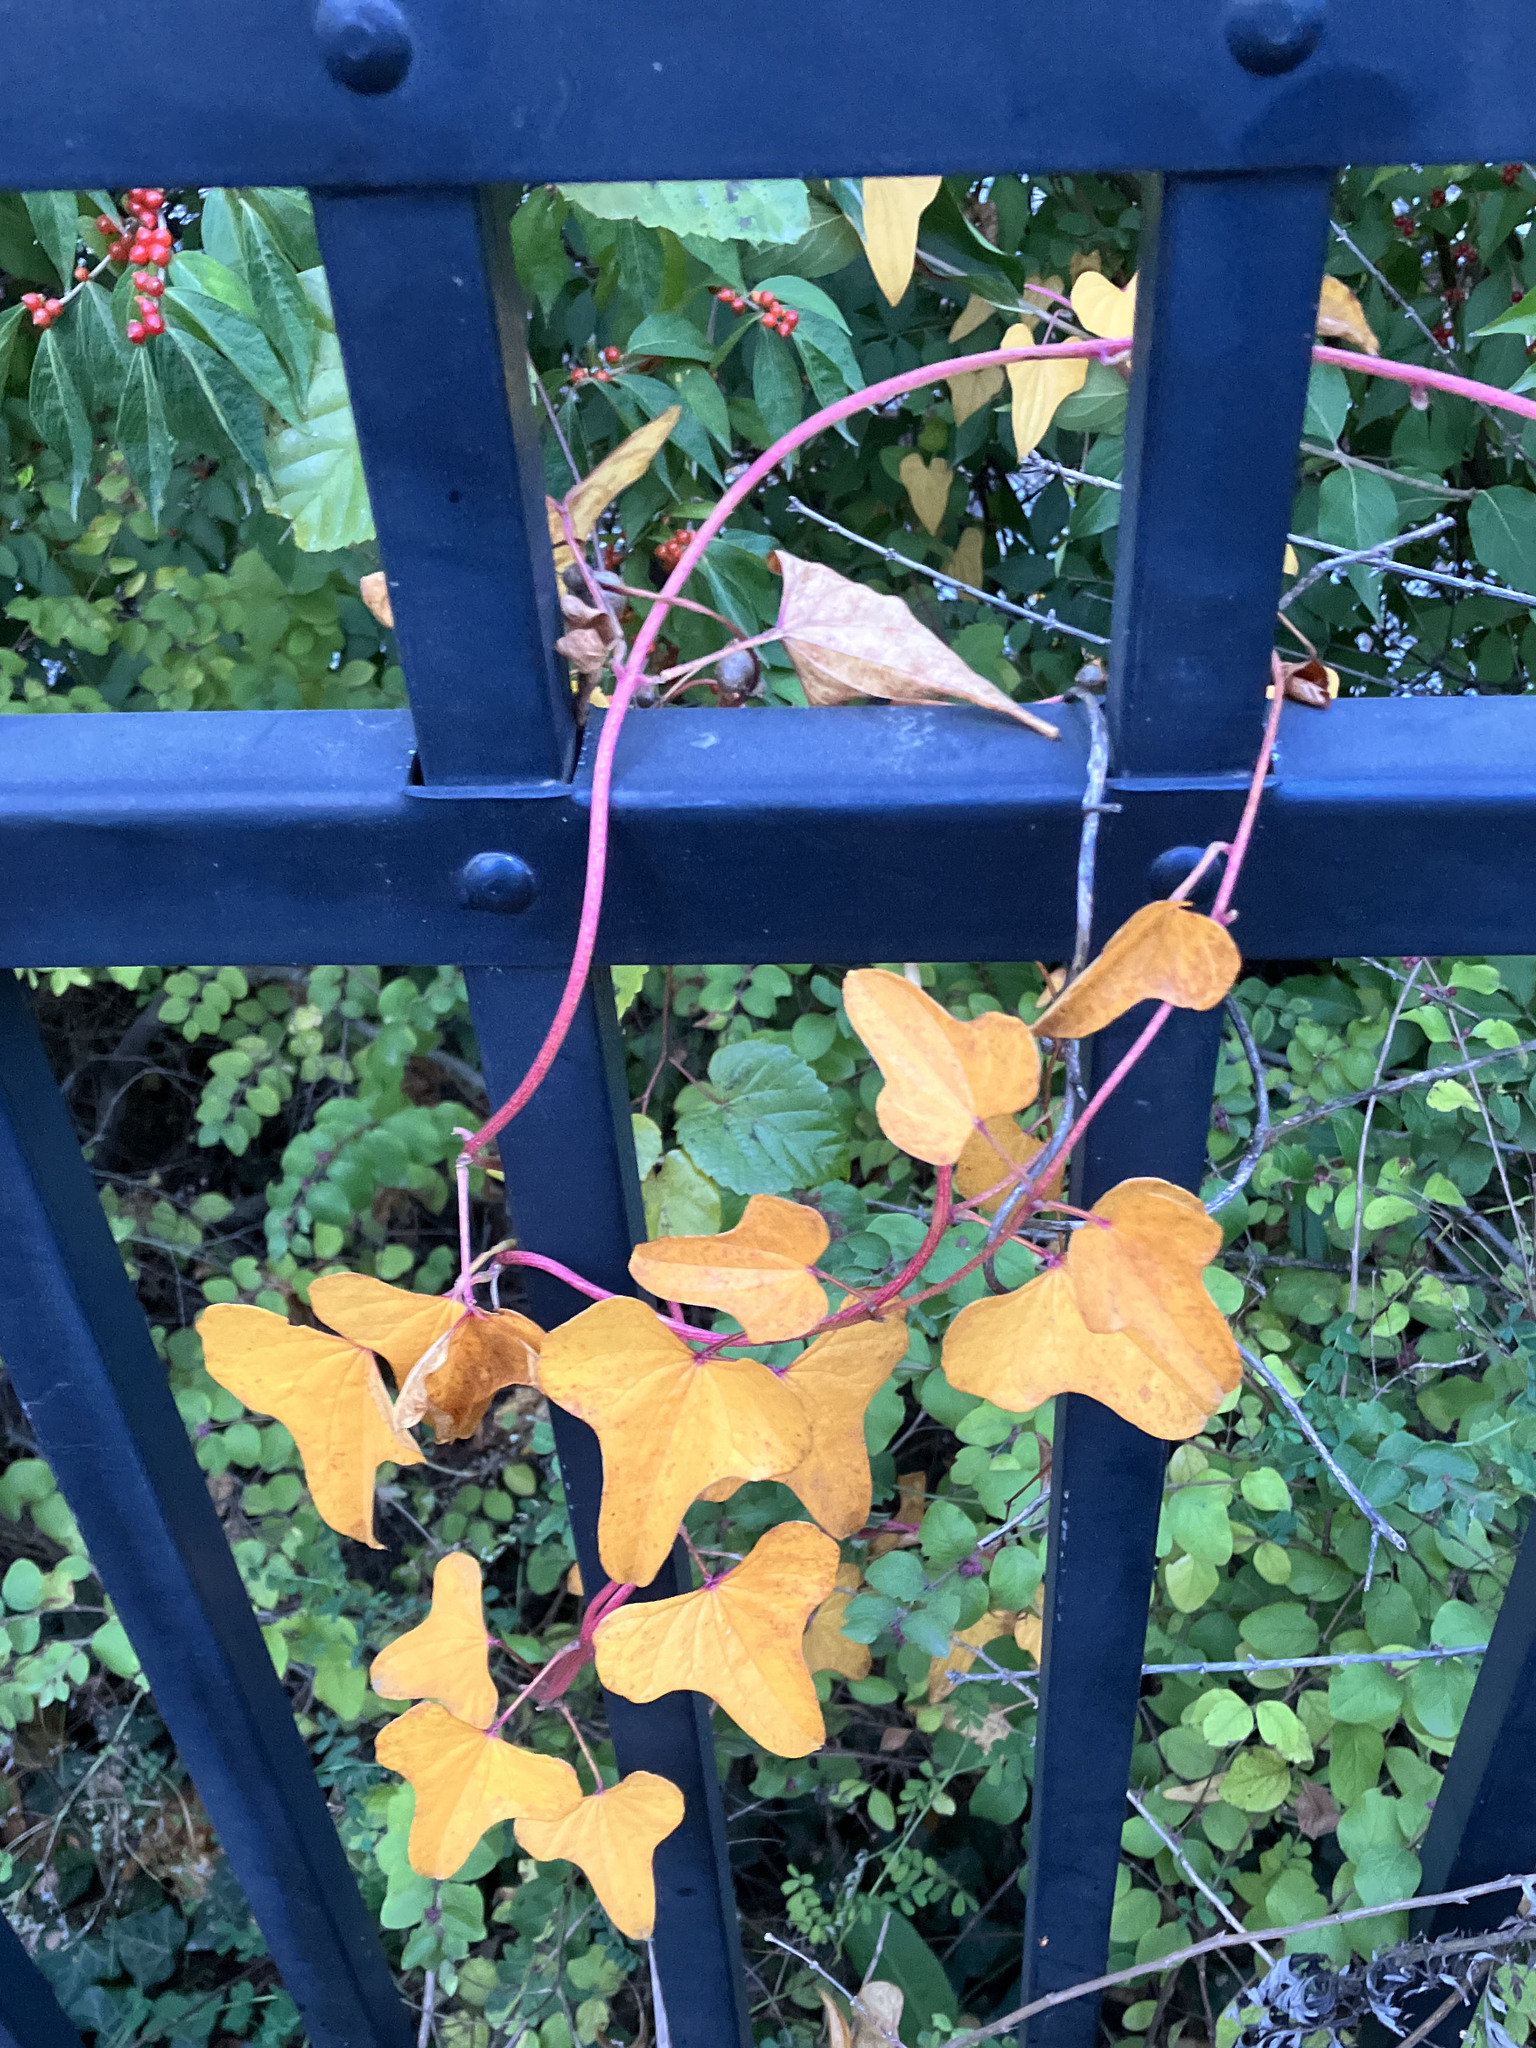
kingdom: Plantae
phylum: Tracheophyta
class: Liliopsida
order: Dioscoreales
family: Dioscoreaceae
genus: Dioscorea
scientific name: Dioscorea polystachya
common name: Chinese yam
